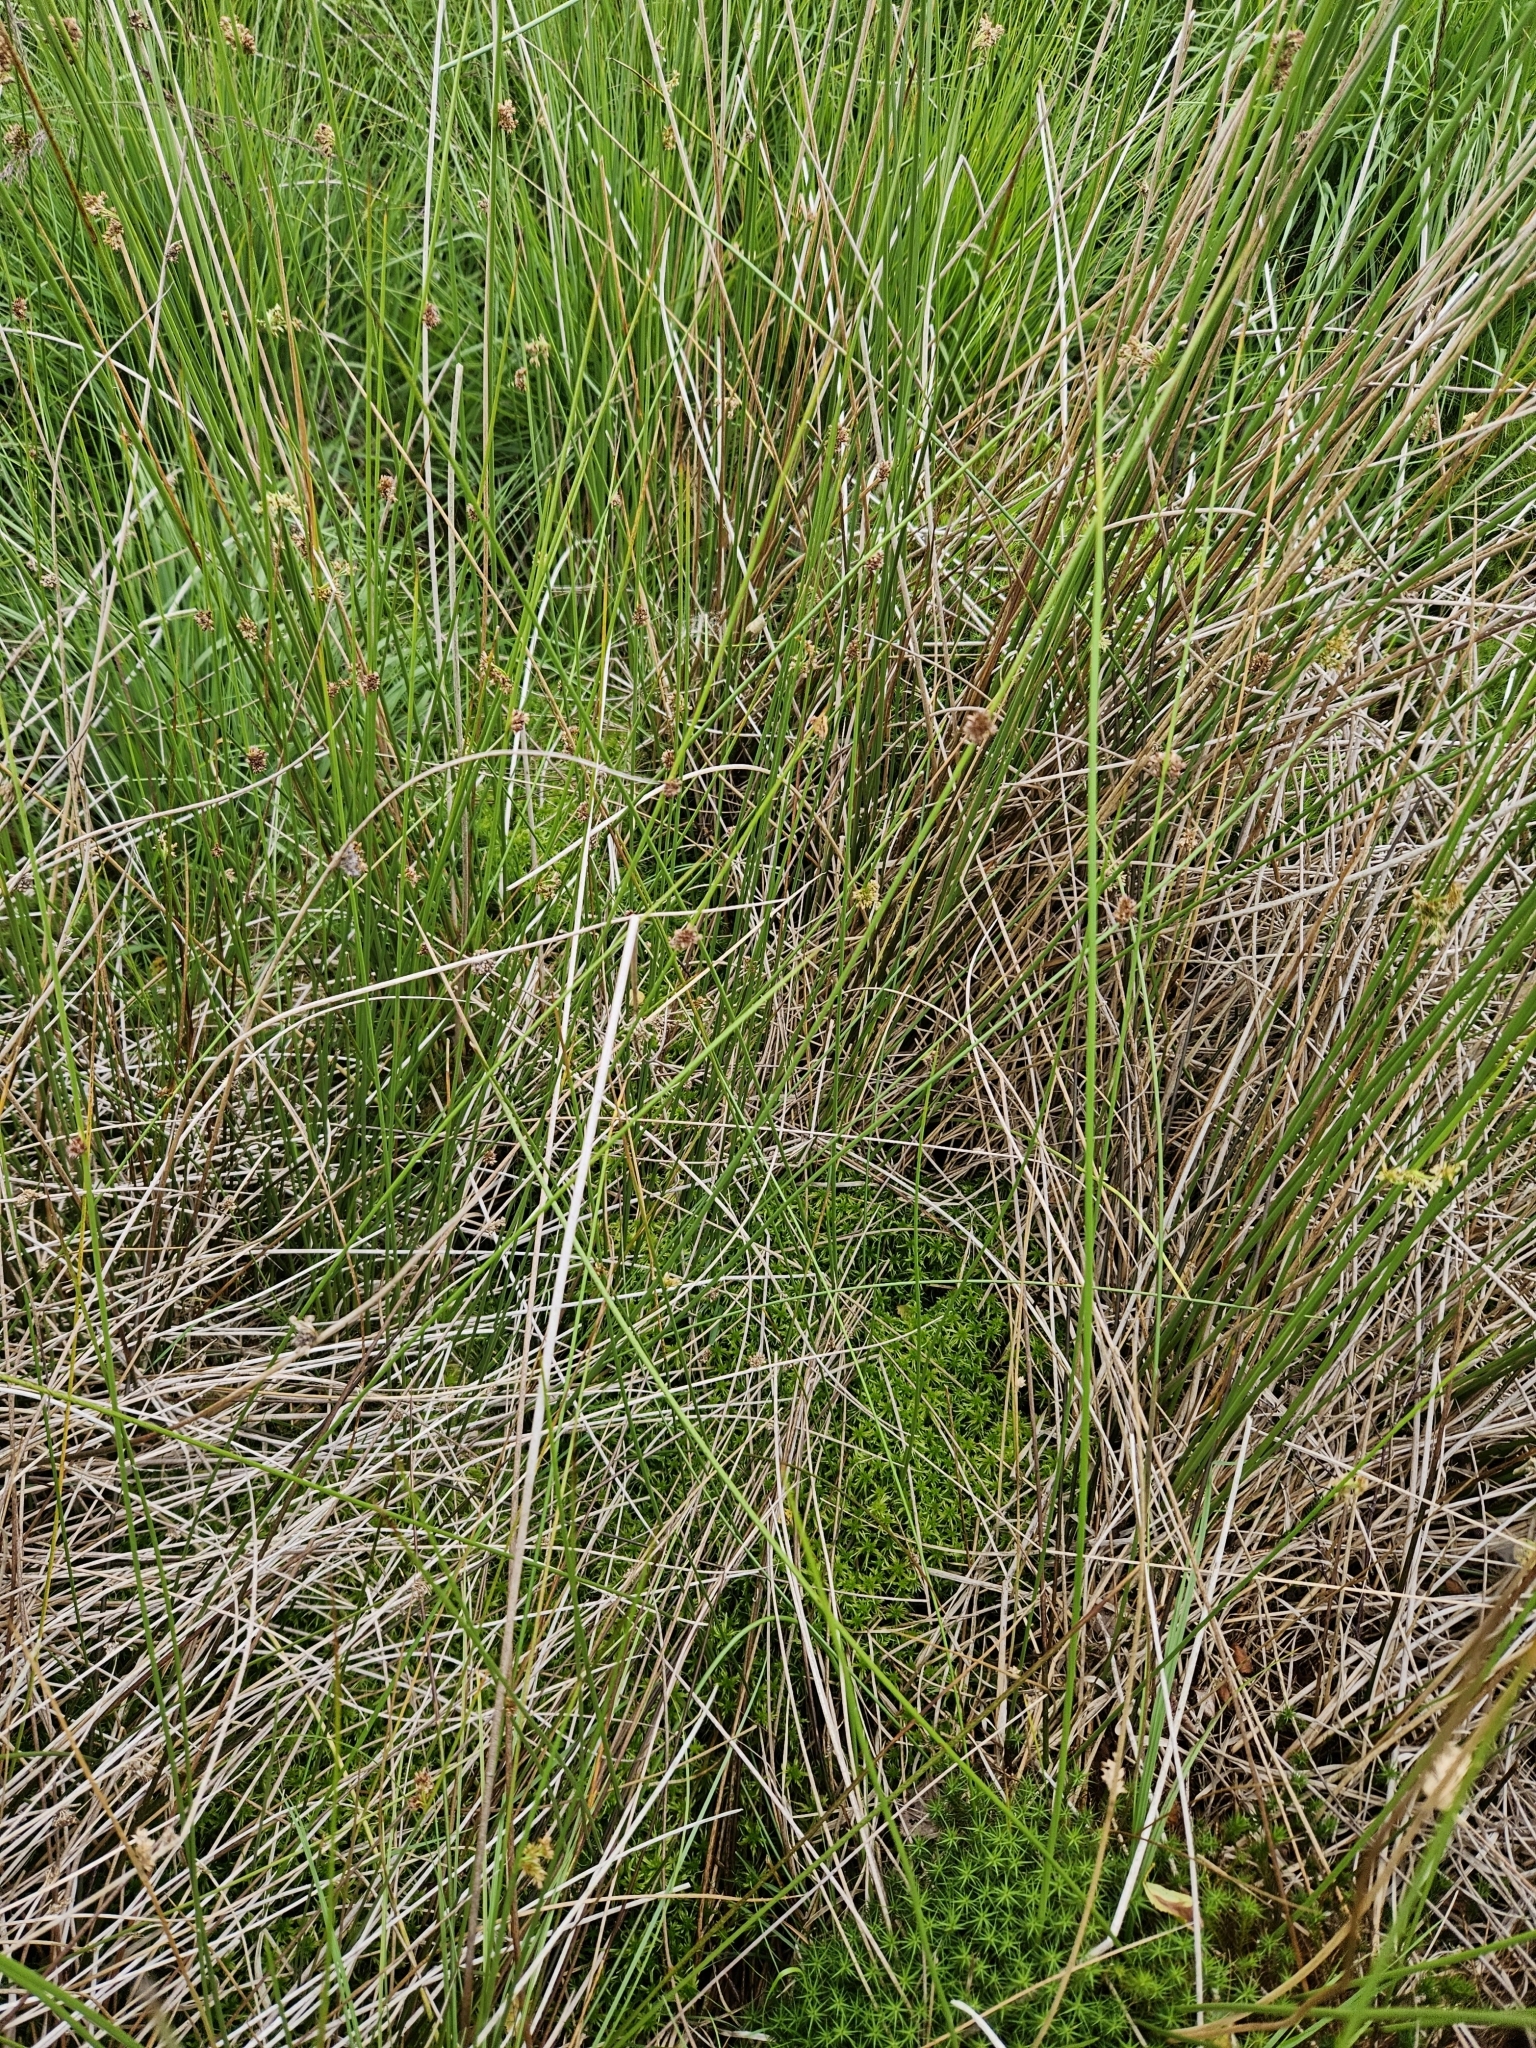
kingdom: Plantae
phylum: Bryophyta
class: Sphagnopsida
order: Sphagnales
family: Sphagnaceae
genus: Sphagnum
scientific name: Sphagnum fallax
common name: Flat-top peat moss
